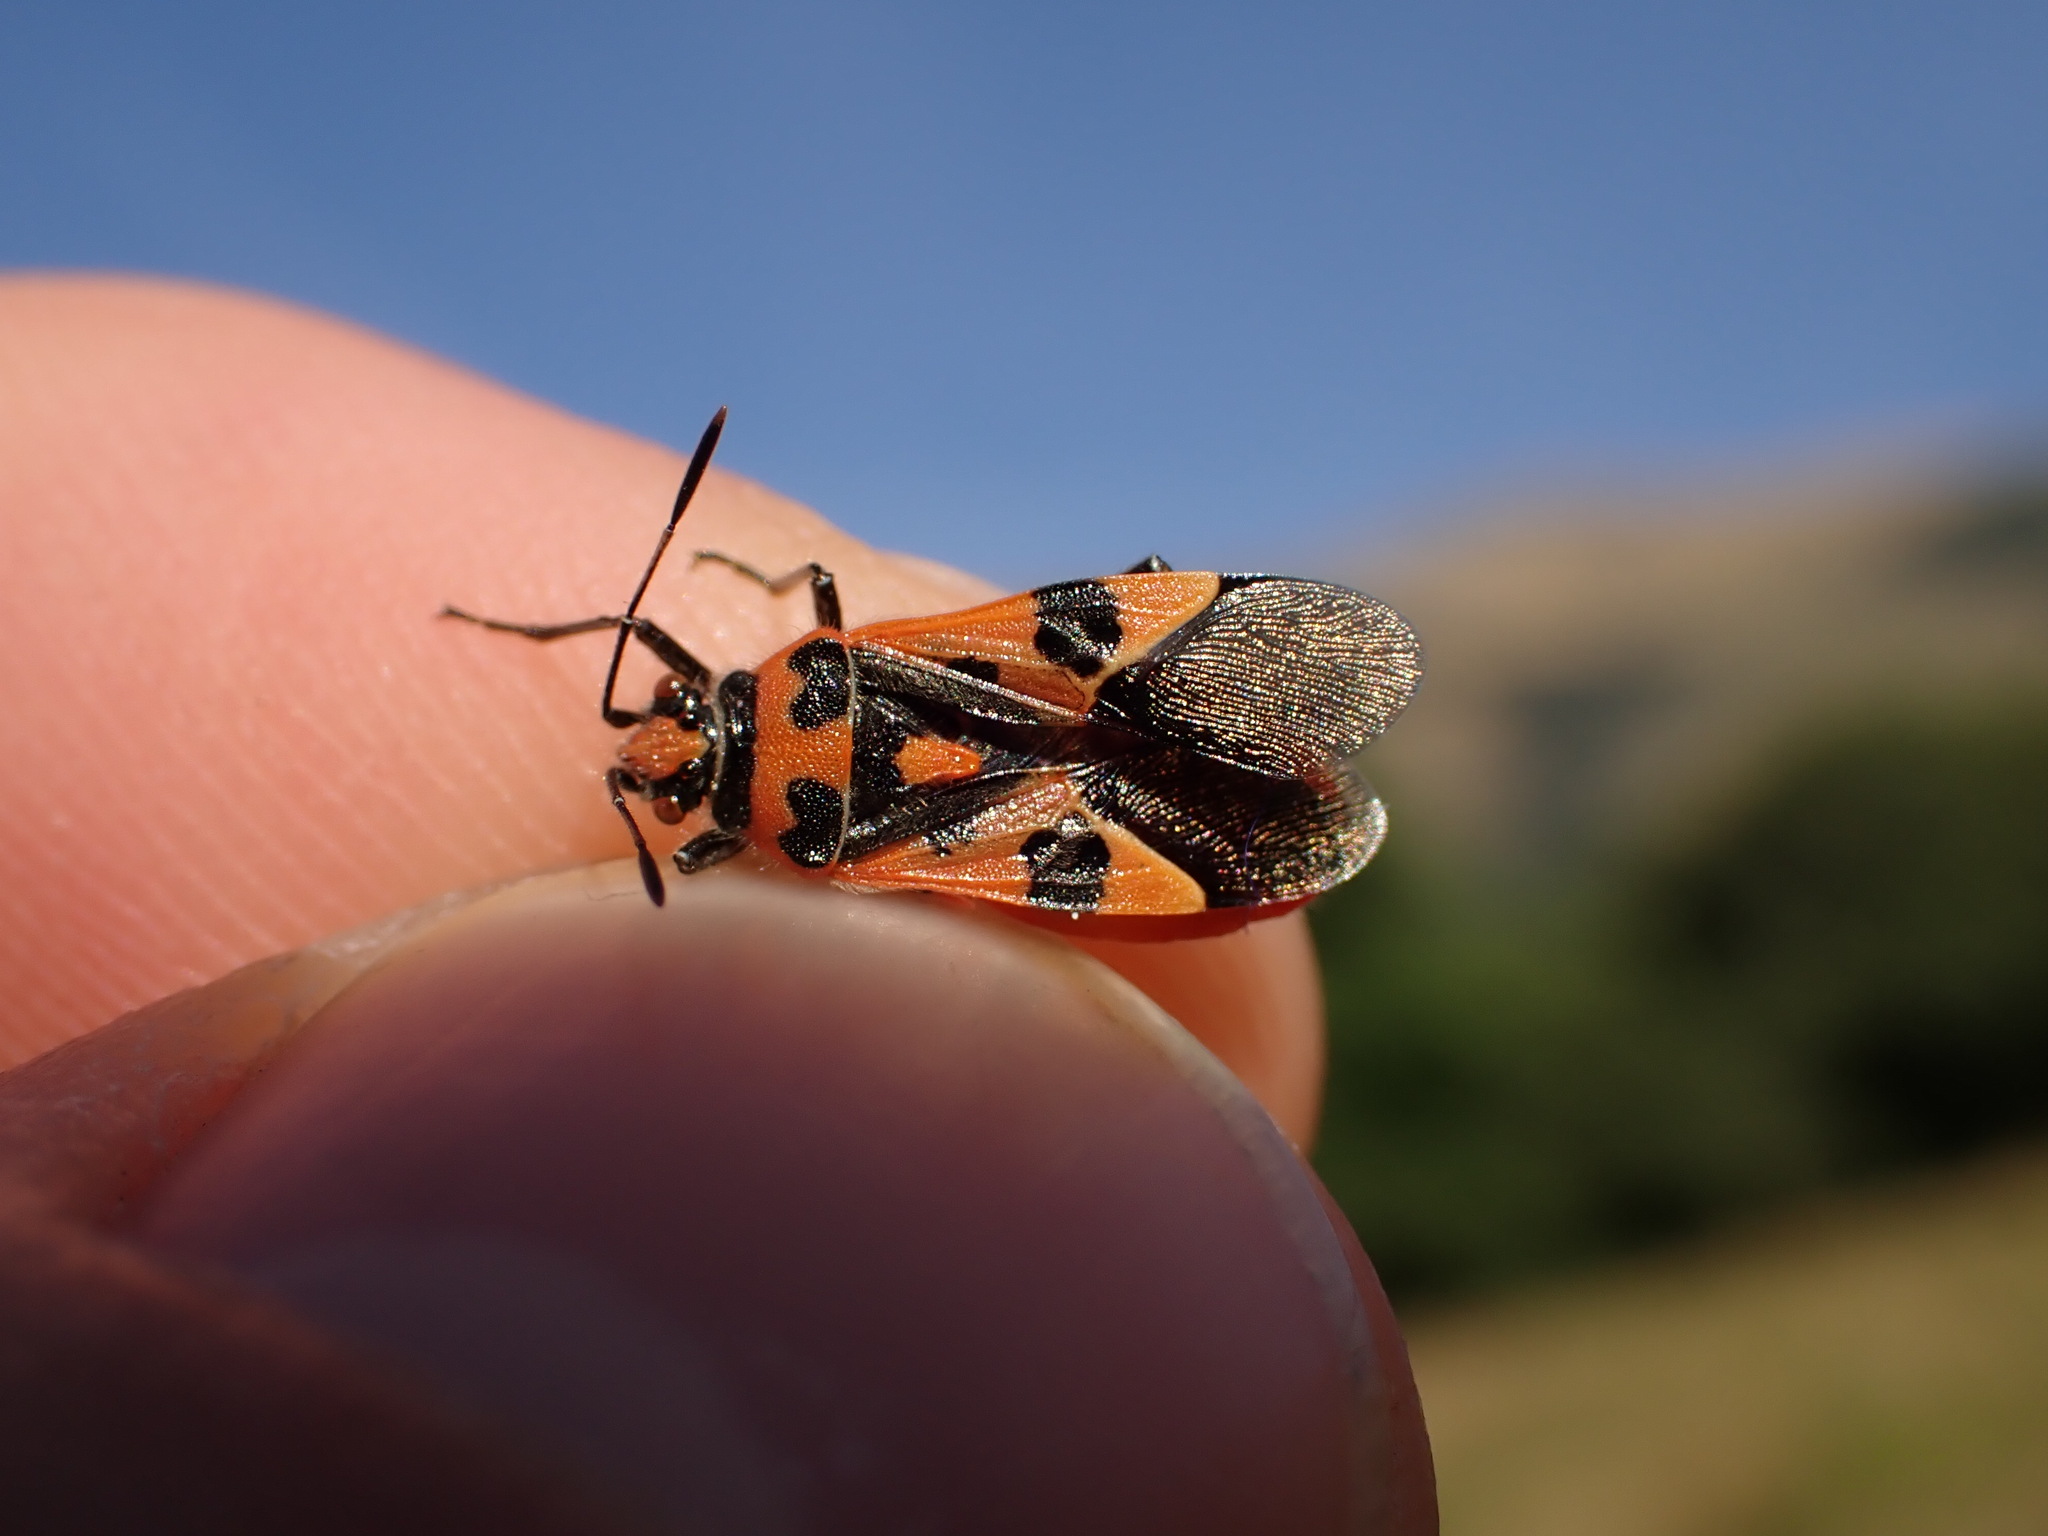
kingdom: Animalia
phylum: Arthropoda
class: Insecta
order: Hemiptera
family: Rhopalidae
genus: Corizus
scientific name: Corizus hyoscyami
